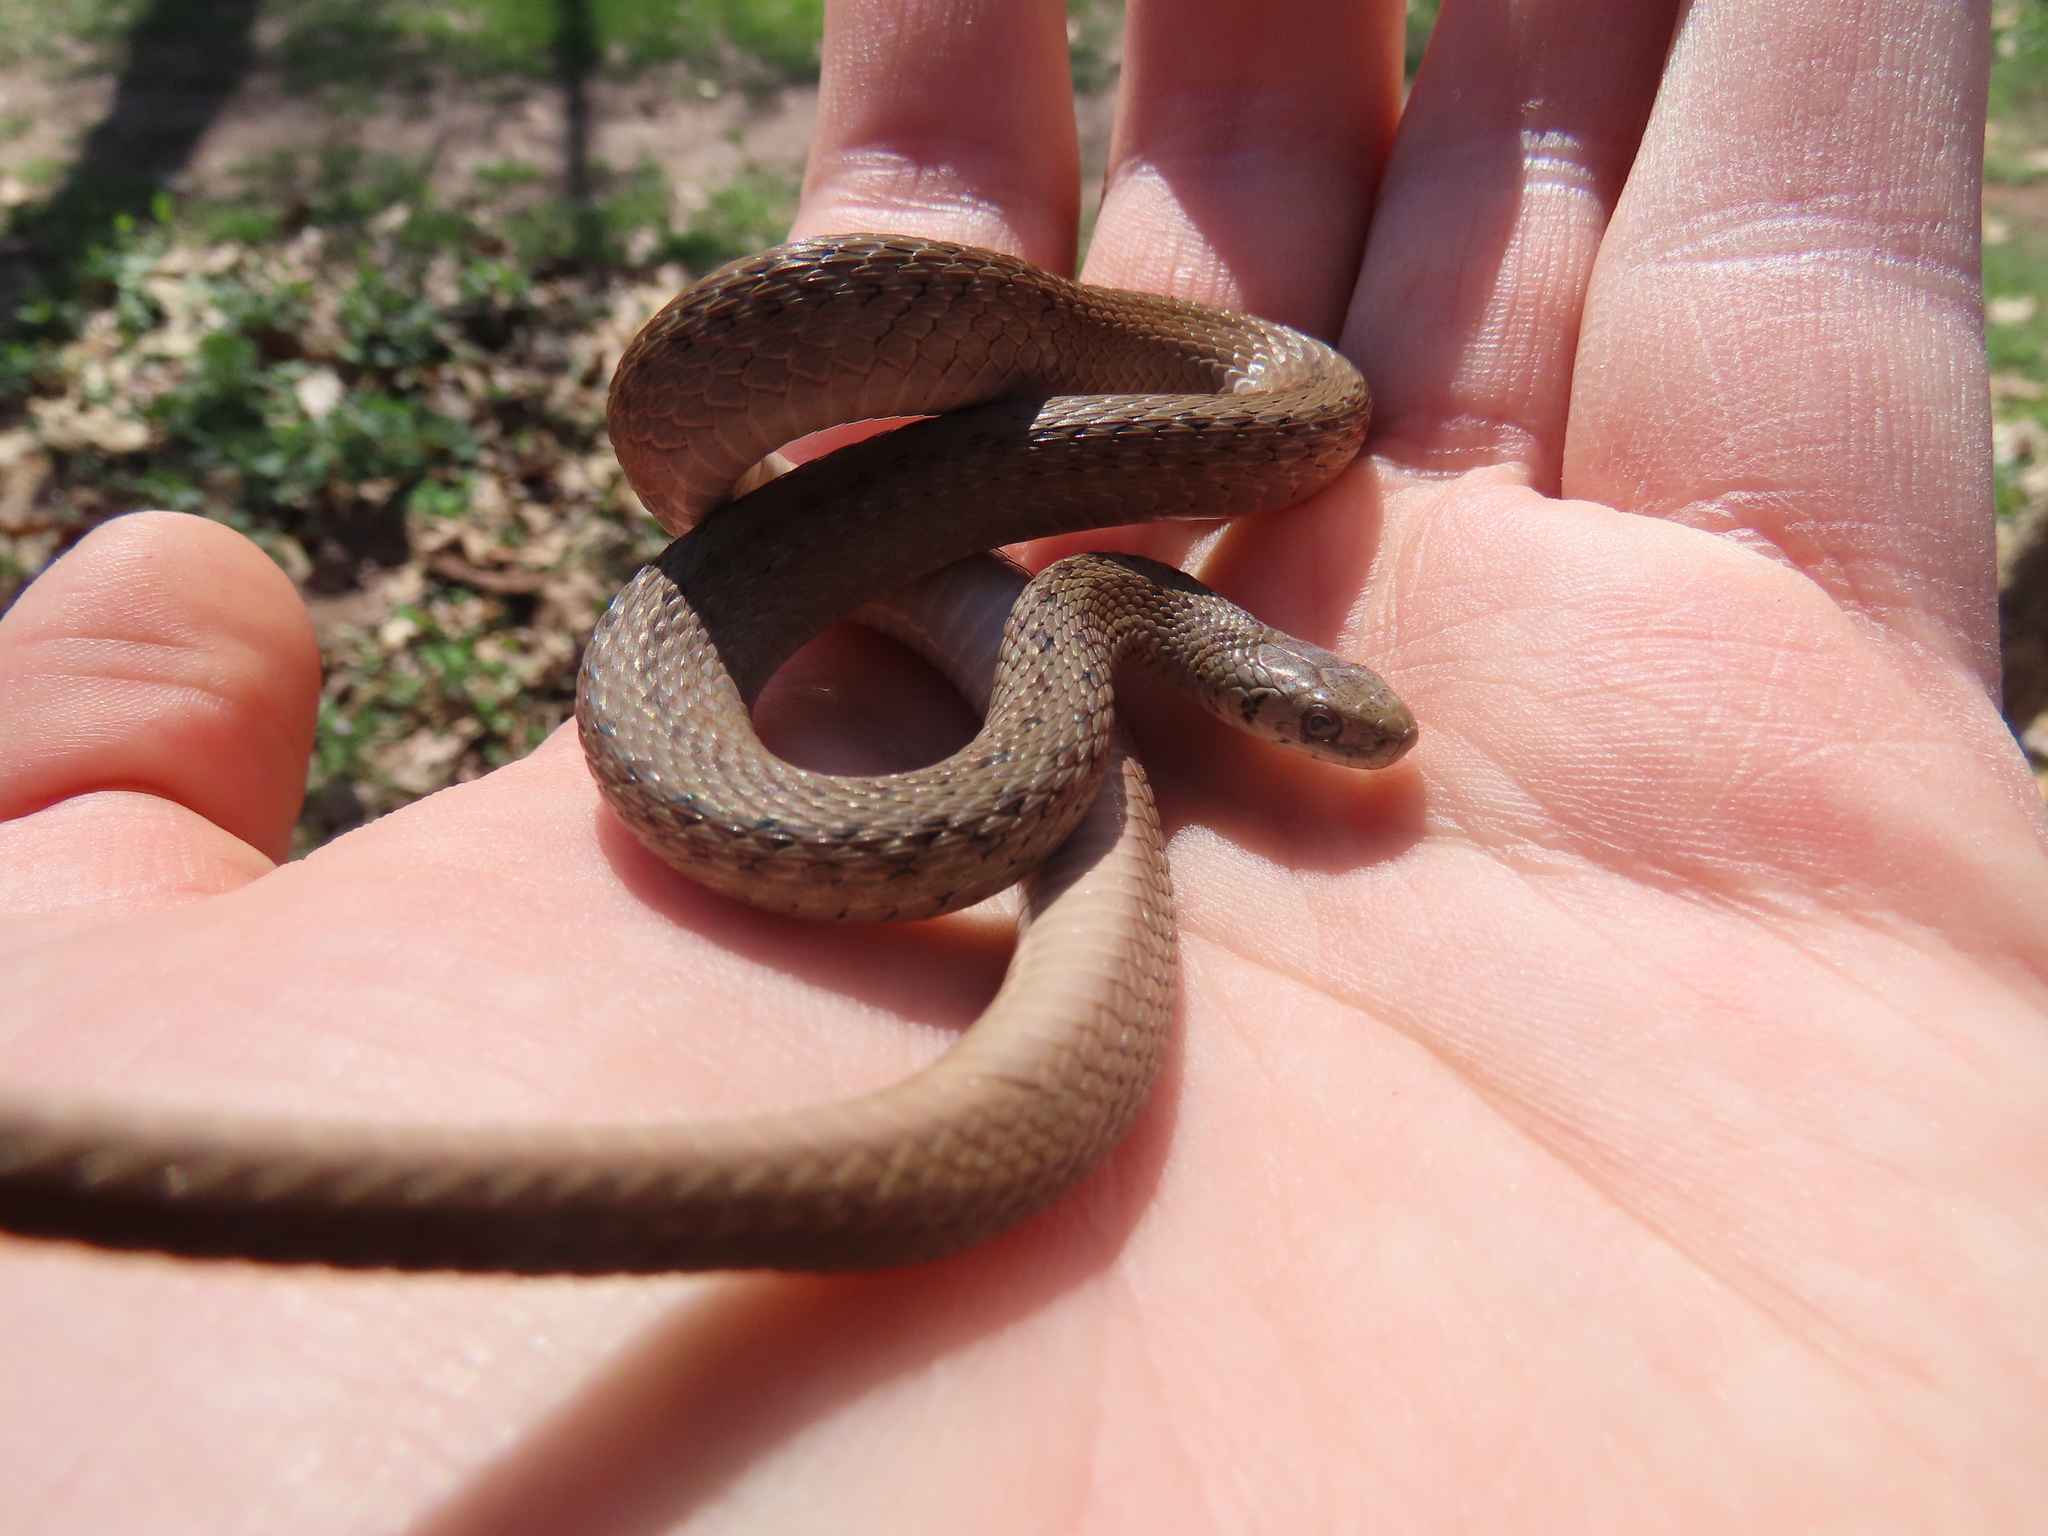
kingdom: Animalia
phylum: Chordata
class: Squamata
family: Colubridae
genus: Storeria
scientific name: Storeria dekayi
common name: (dekay’s) brown snake
